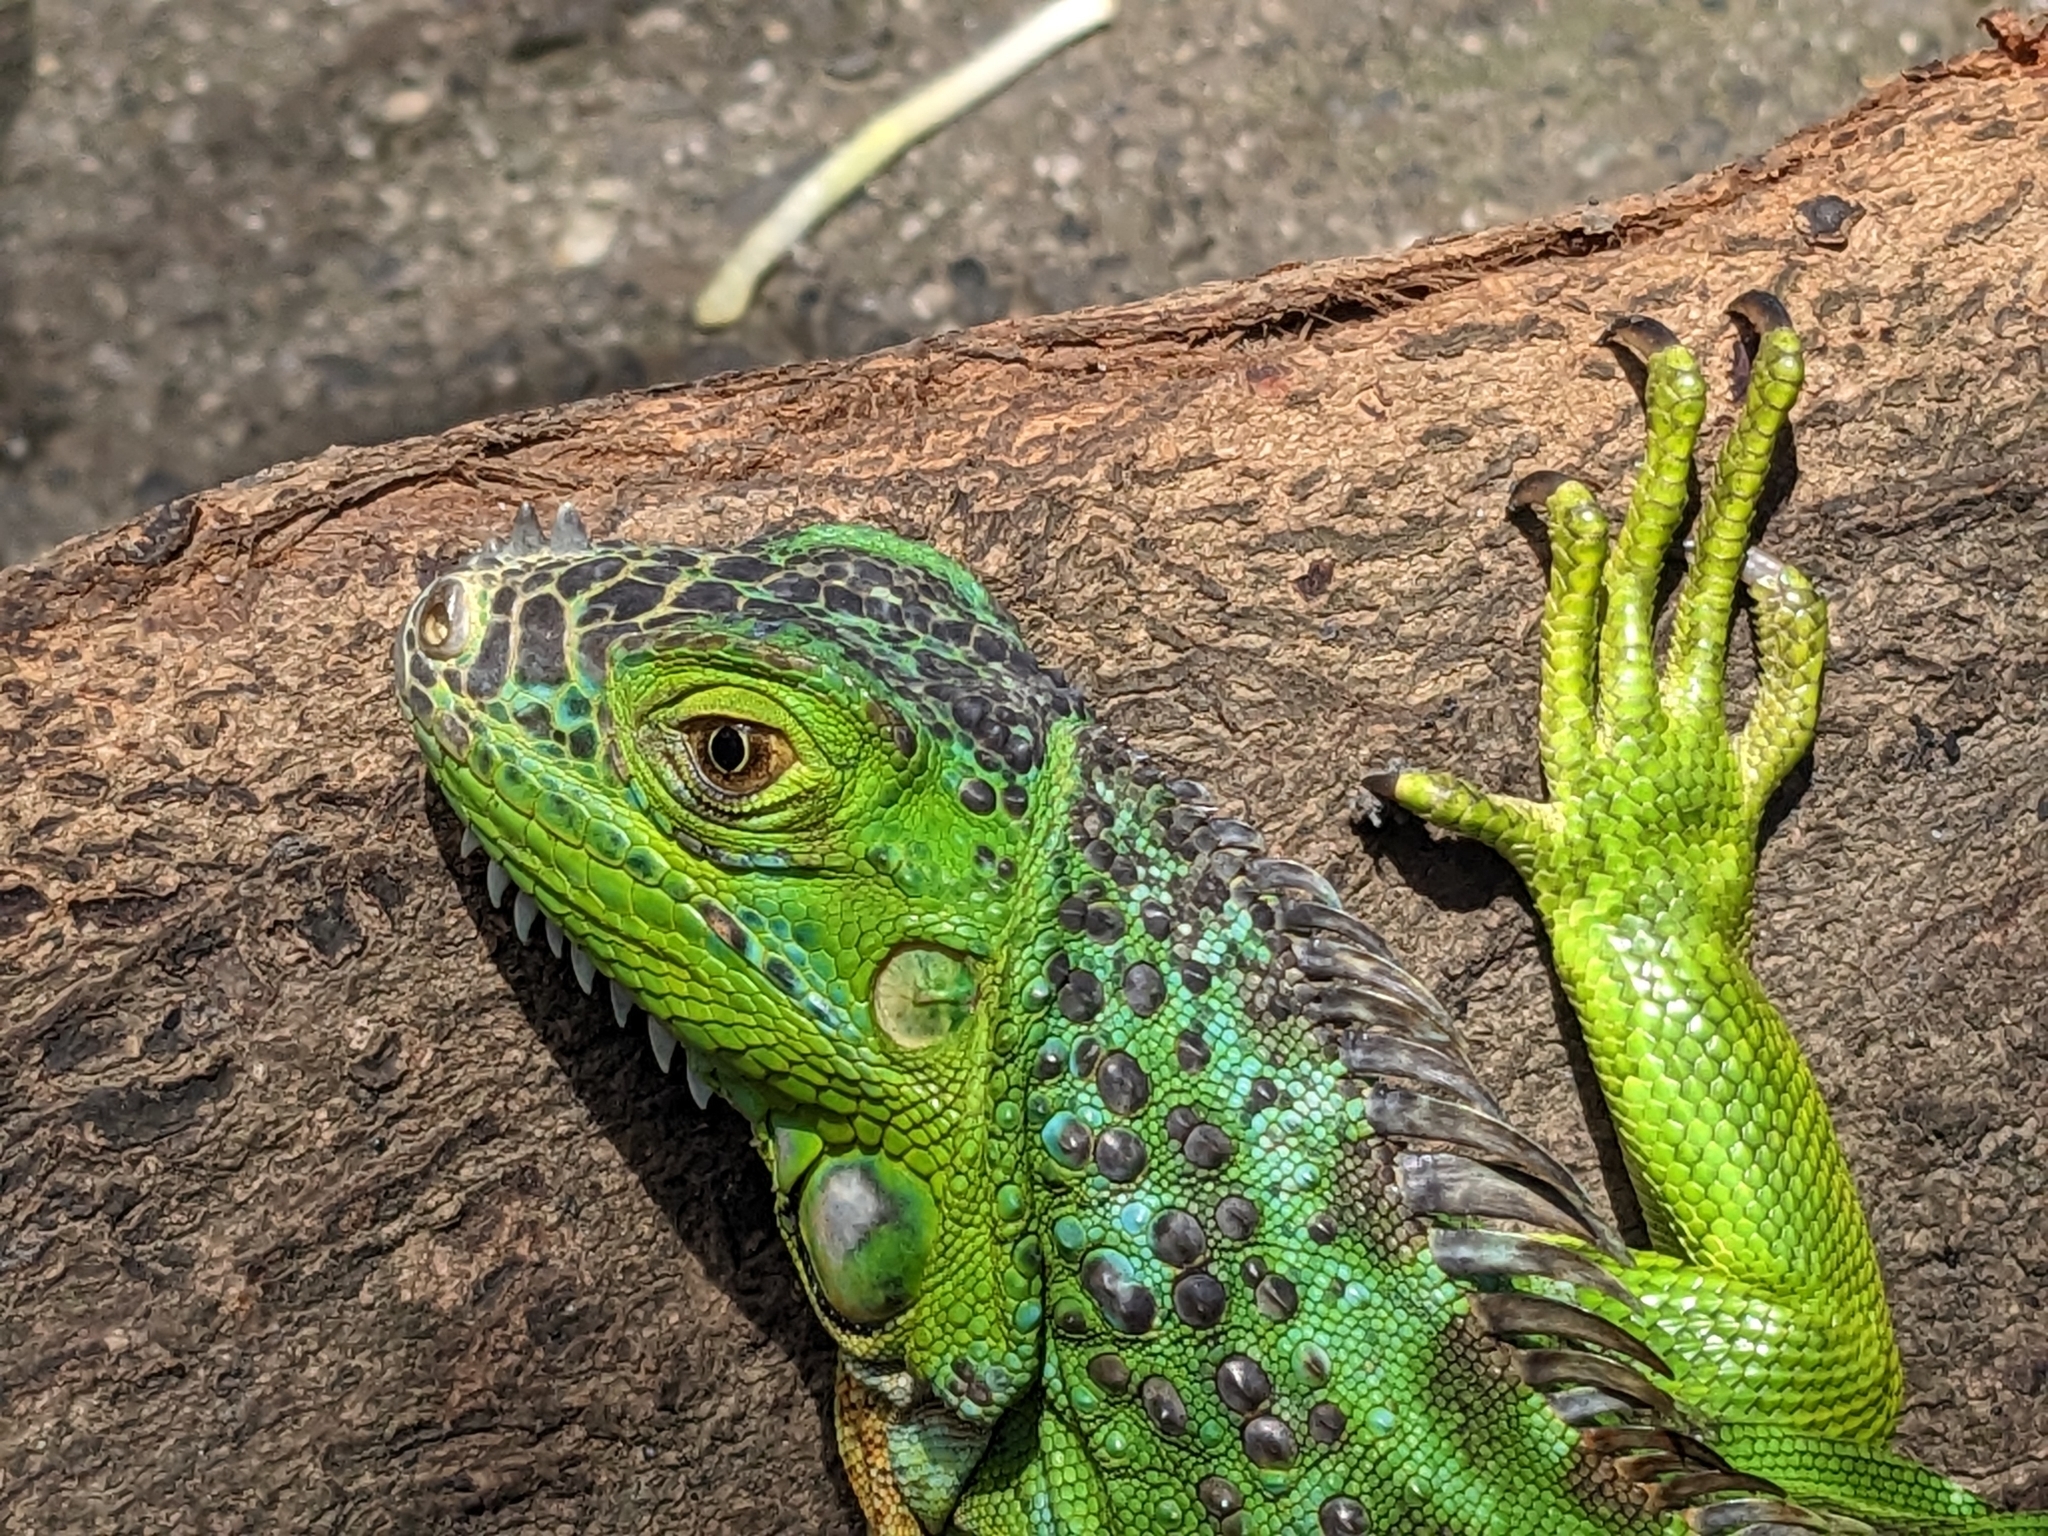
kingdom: Animalia
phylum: Chordata
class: Squamata
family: Iguanidae
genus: Iguana
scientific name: Iguana iguana
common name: Green iguana
